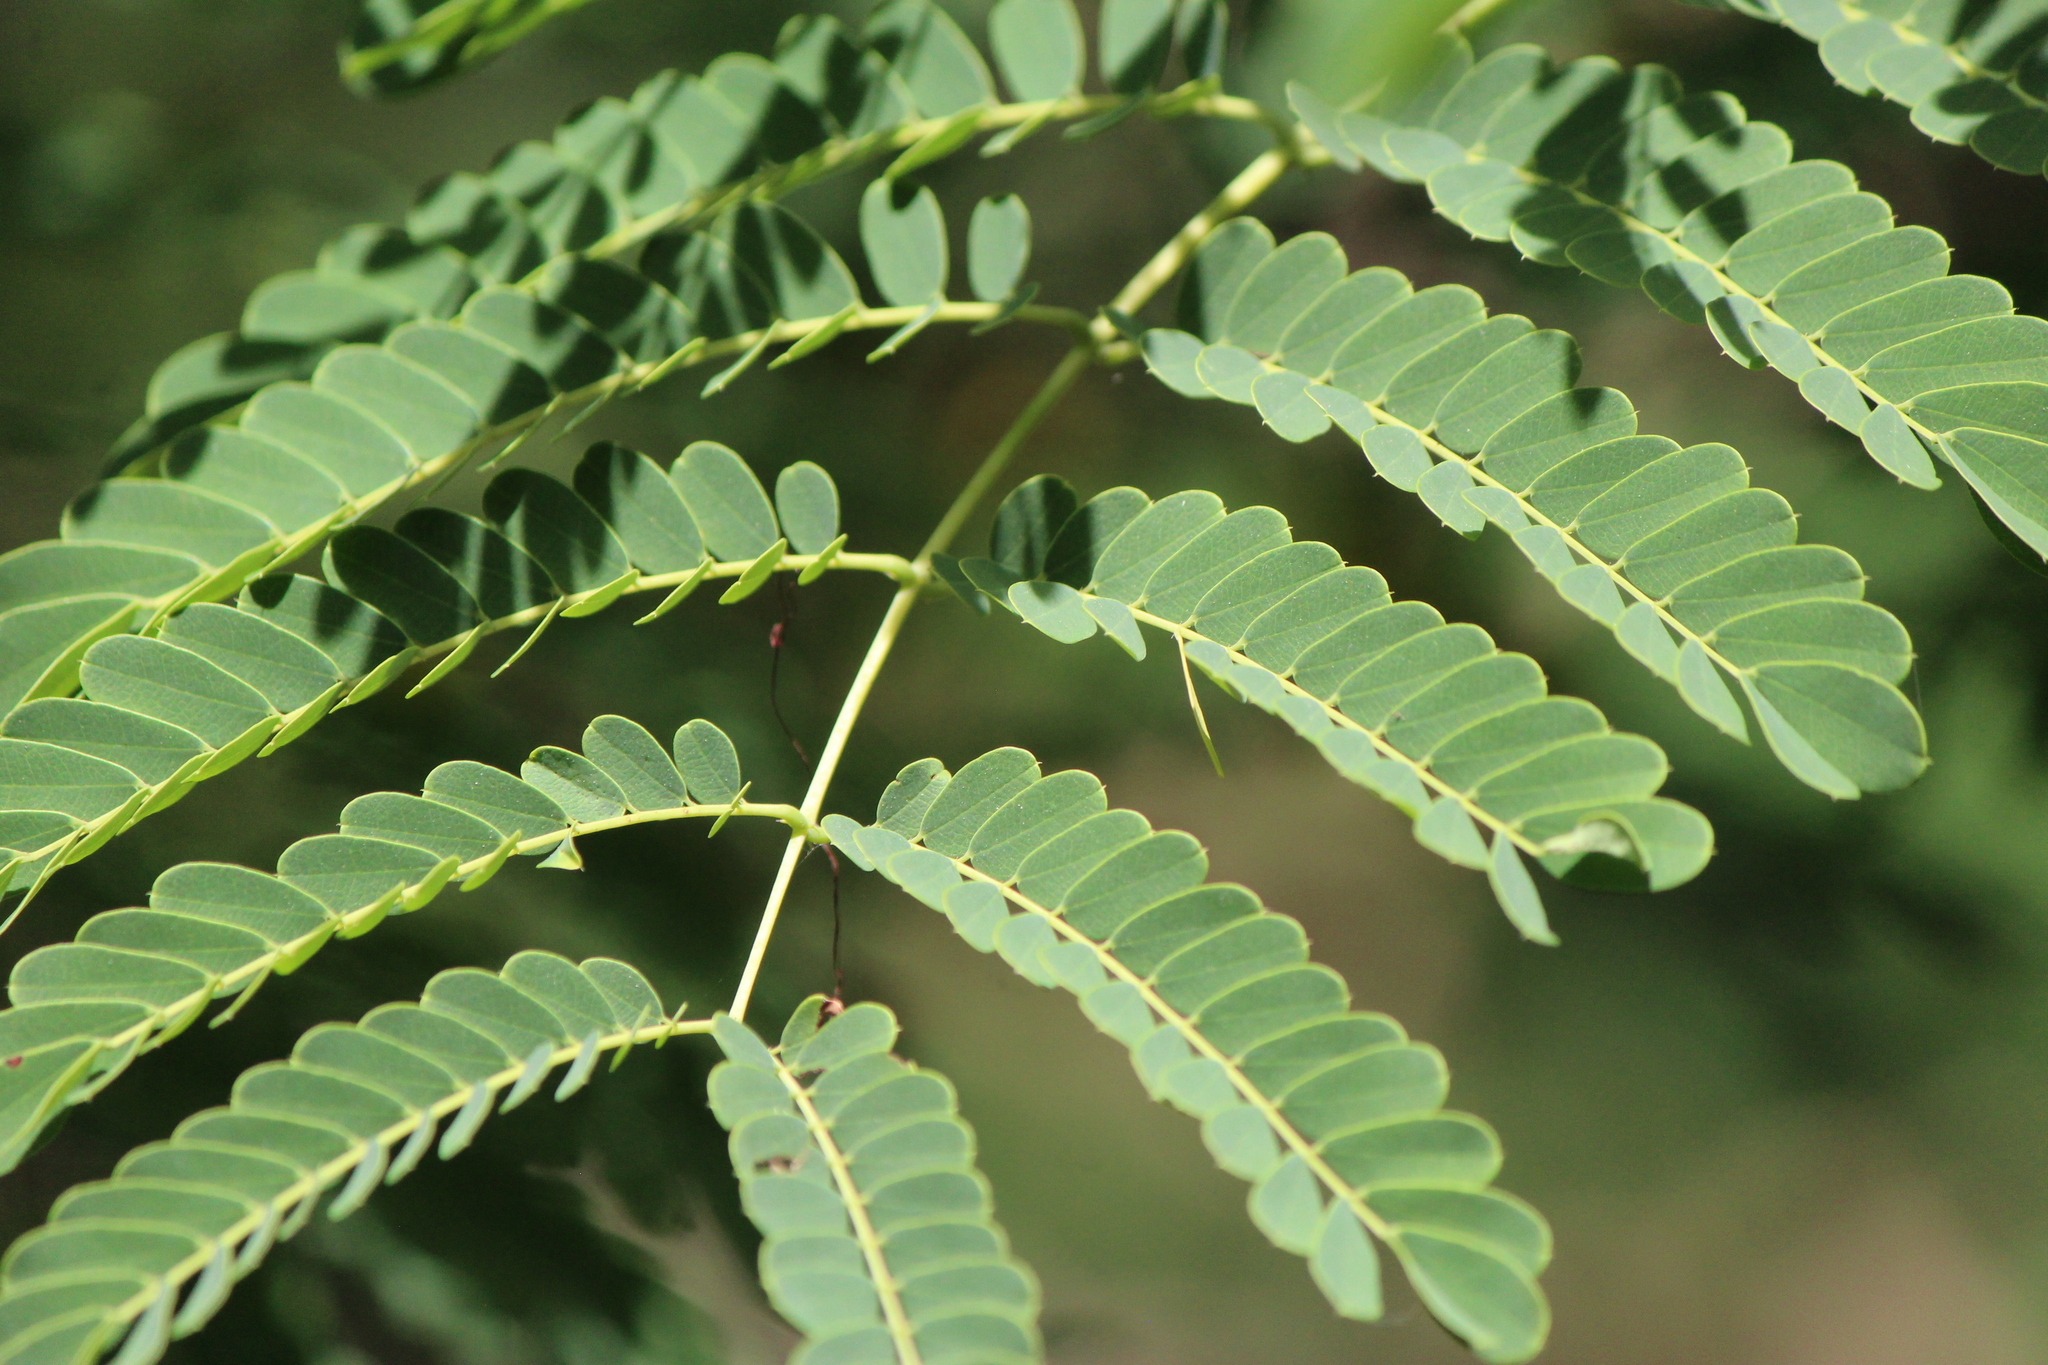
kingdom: Plantae
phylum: Tracheophyta
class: Magnoliopsida
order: Fabales
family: Fabaceae
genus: Caesalpinia
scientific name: Caesalpinia pulcherrima
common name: Pride-of-barbados
